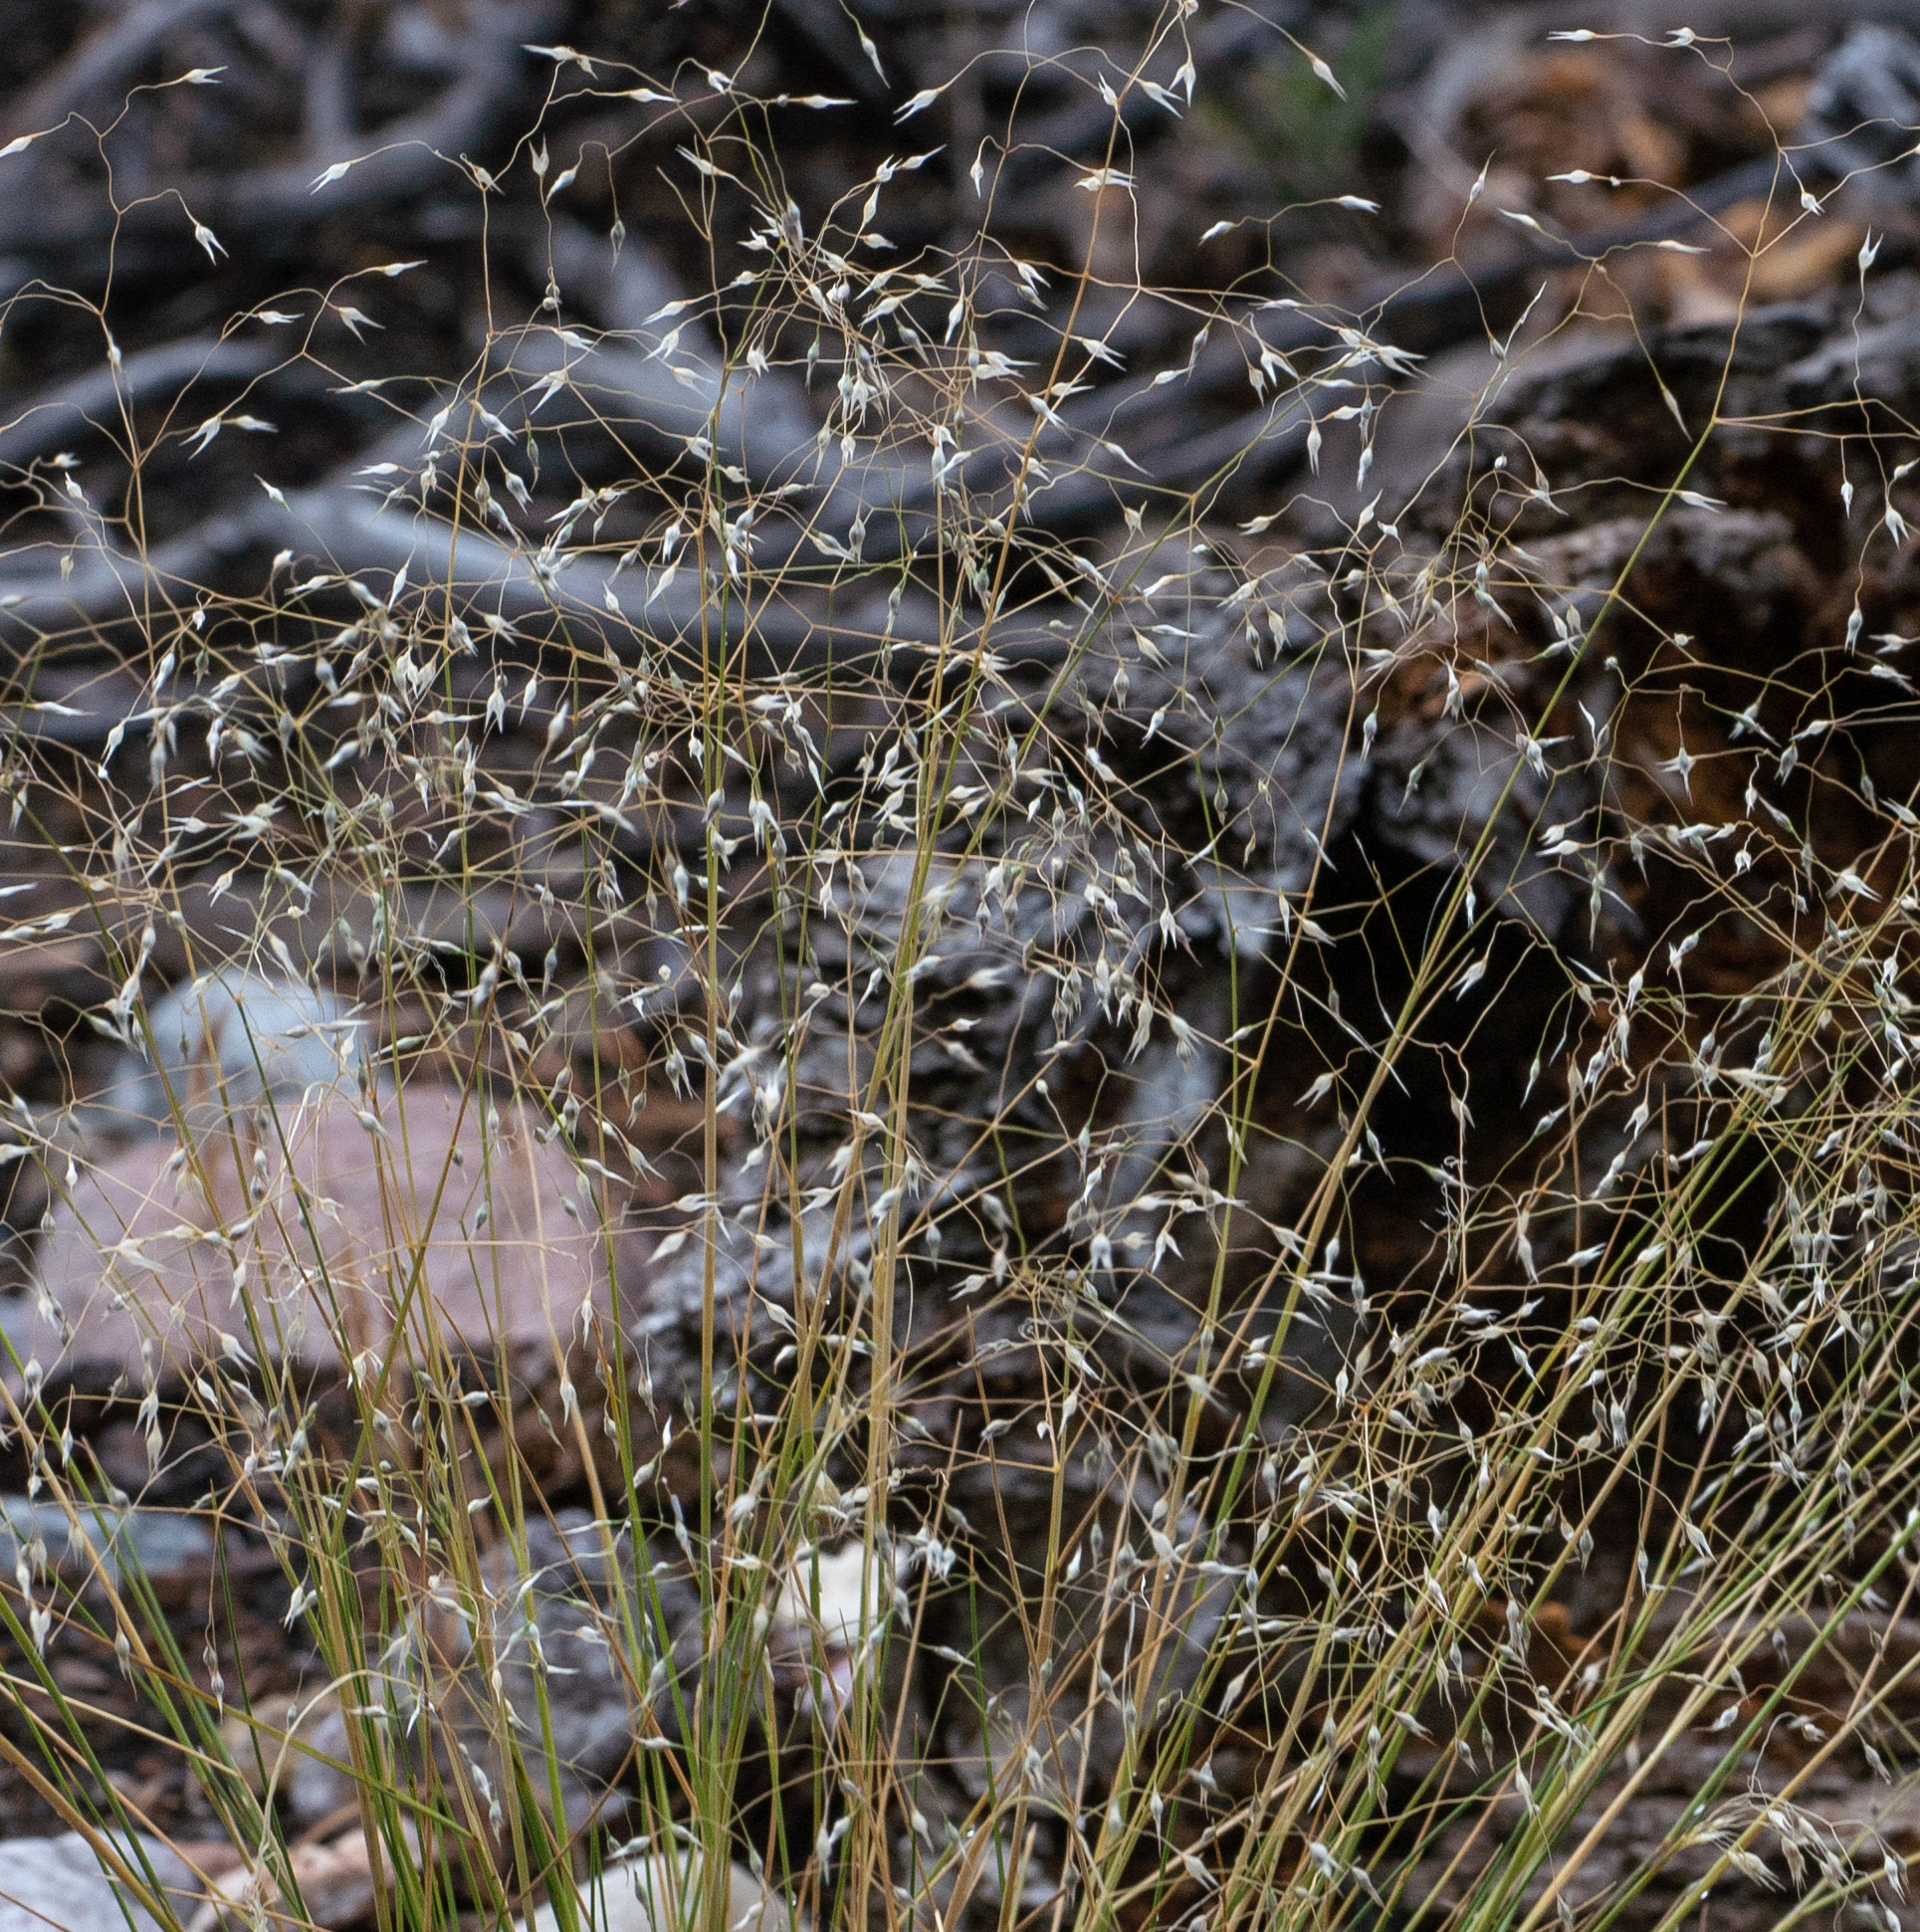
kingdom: Plantae
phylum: Tracheophyta
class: Liliopsida
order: Poales
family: Poaceae
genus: Eriocoma
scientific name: Eriocoma hymenoides
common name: Indian mountain ricegrass
